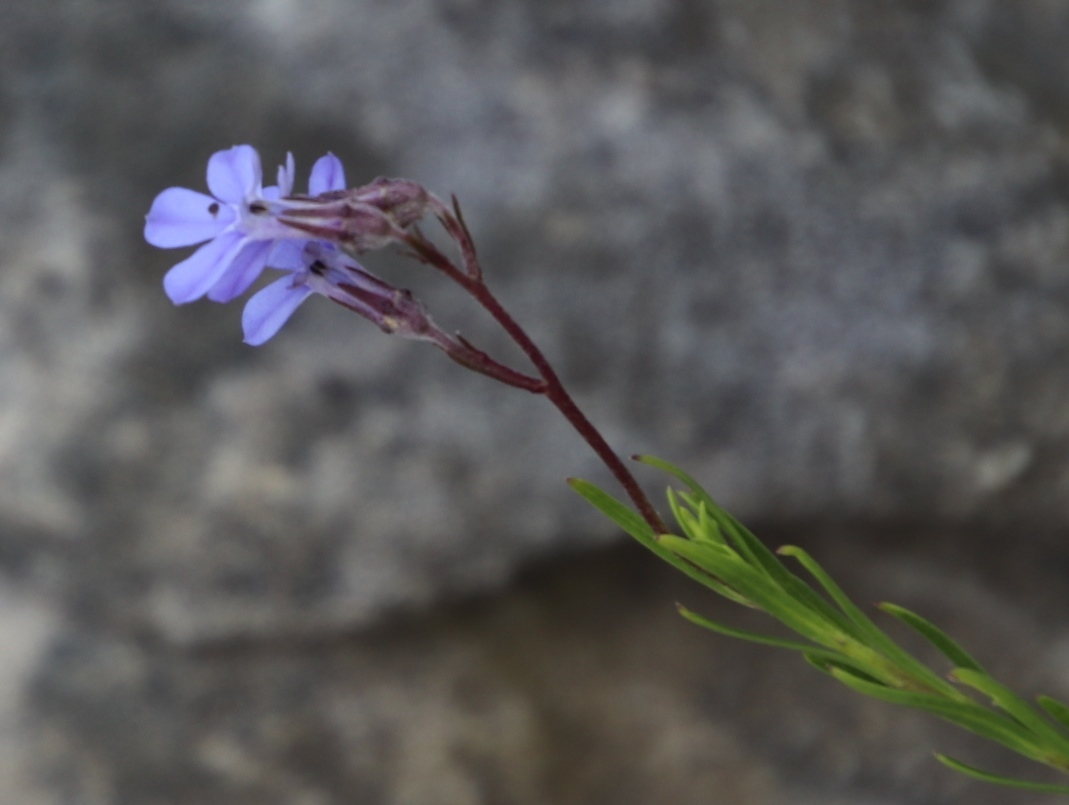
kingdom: Plantae
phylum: Tracheophyta
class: Magnoliopsida
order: Asterales
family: Campanulaceae
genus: Lobelia
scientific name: Lobelia pinifolia
